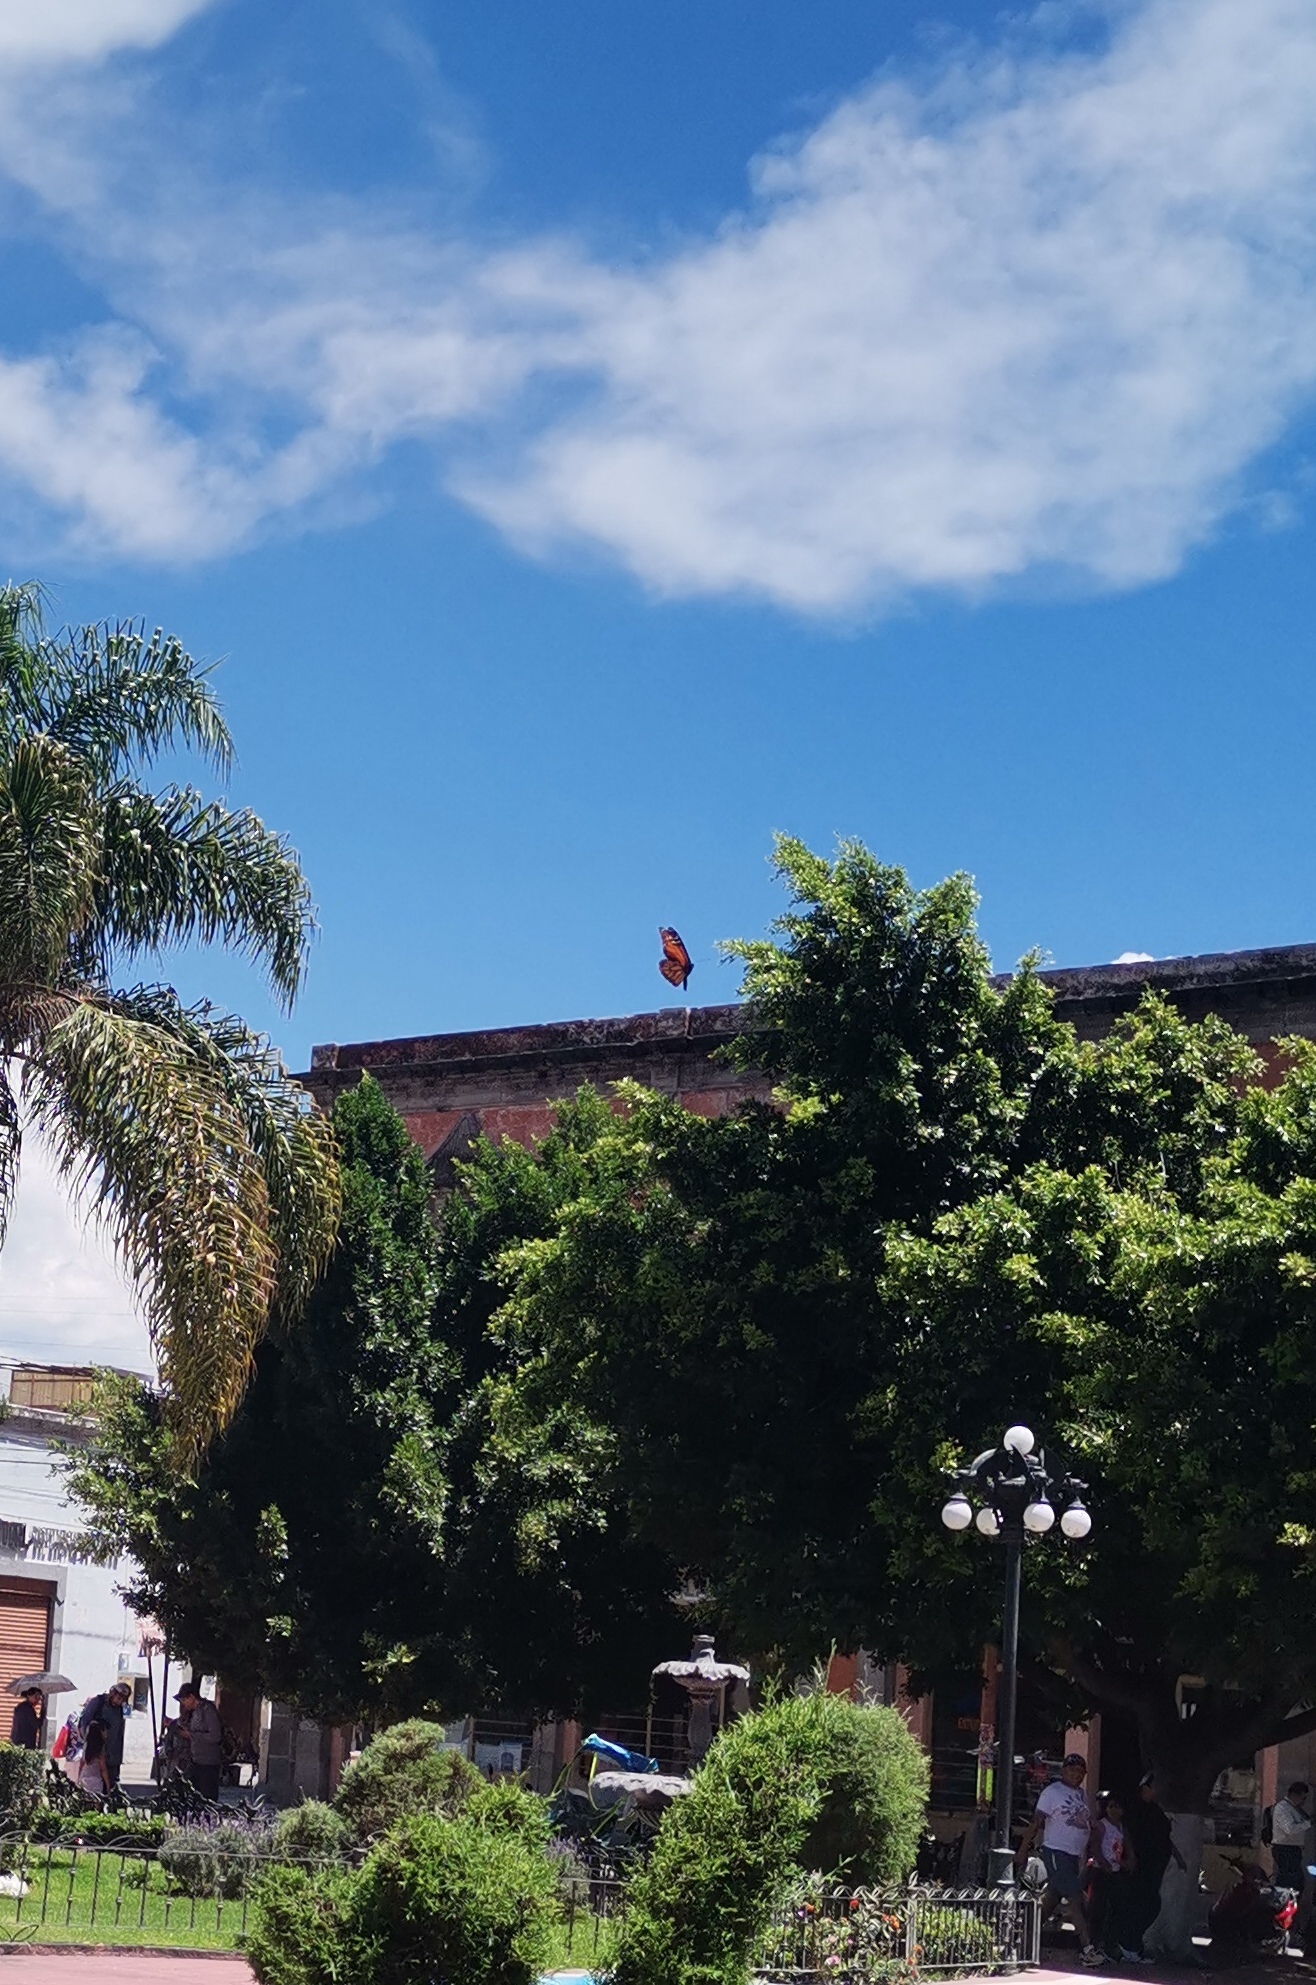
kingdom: Animalia
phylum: Arthropoda
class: Insecta
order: Lepidoptera
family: Nymphalidae
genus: Danaus
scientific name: Danaus plexippus
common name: Monarch
